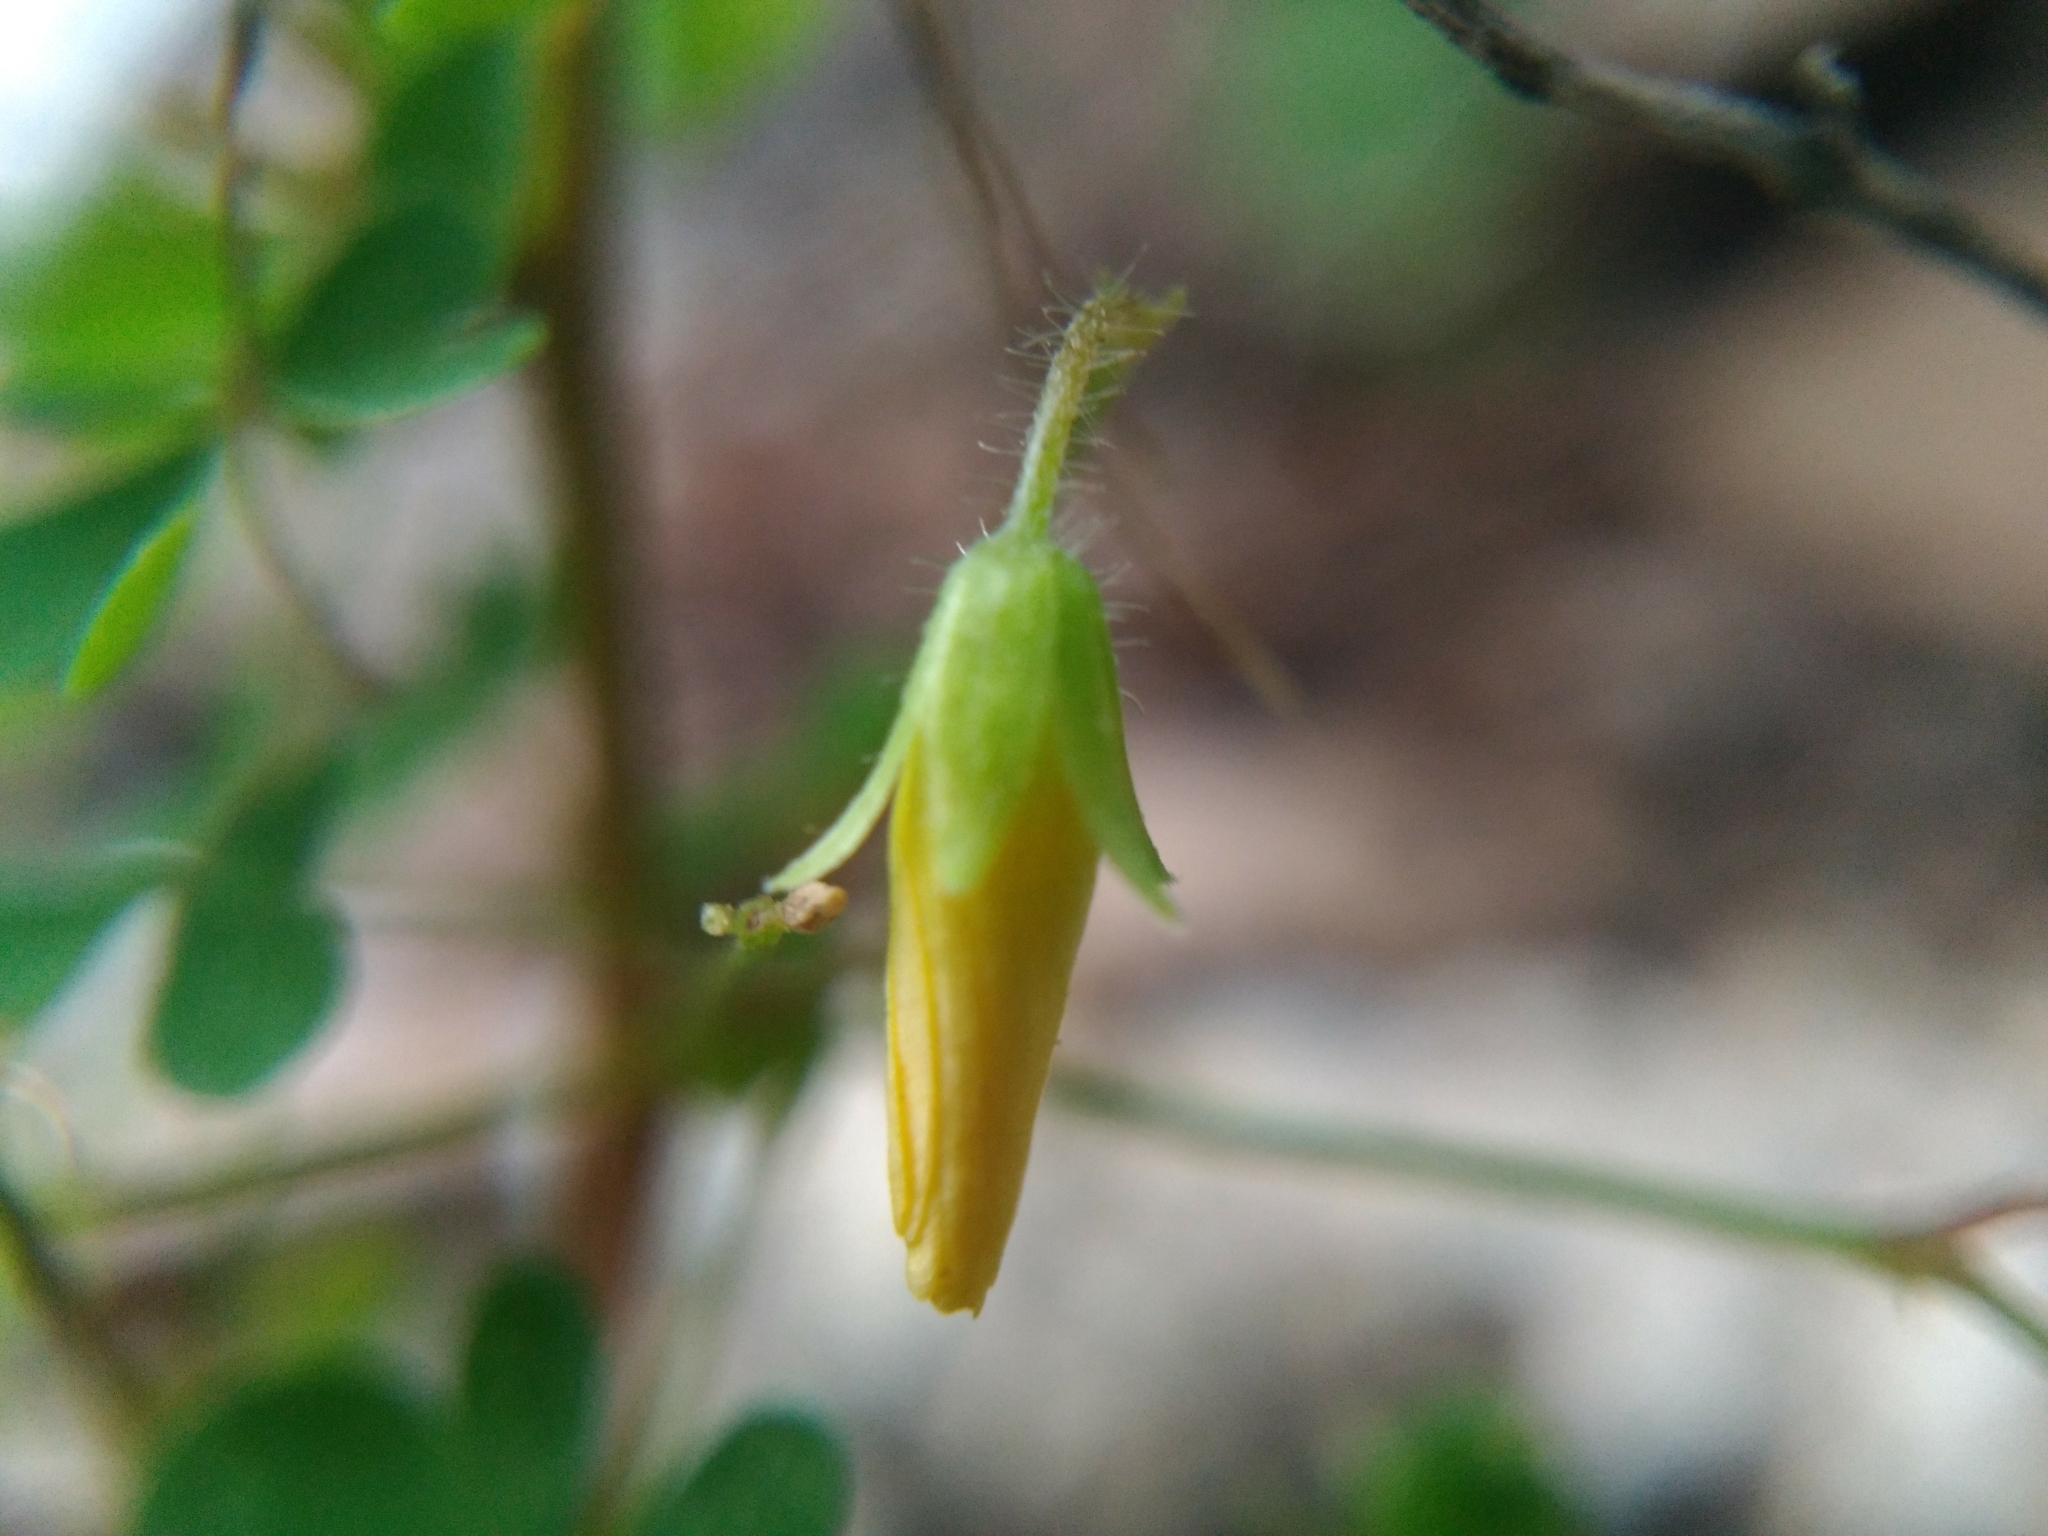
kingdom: Plantae
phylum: Tracheophyta
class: Magnoliopsida
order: Oxalidales
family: Oxalidaceae
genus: Oxalis
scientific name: Oxalis stricta
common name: Upright yellow-sorrel
